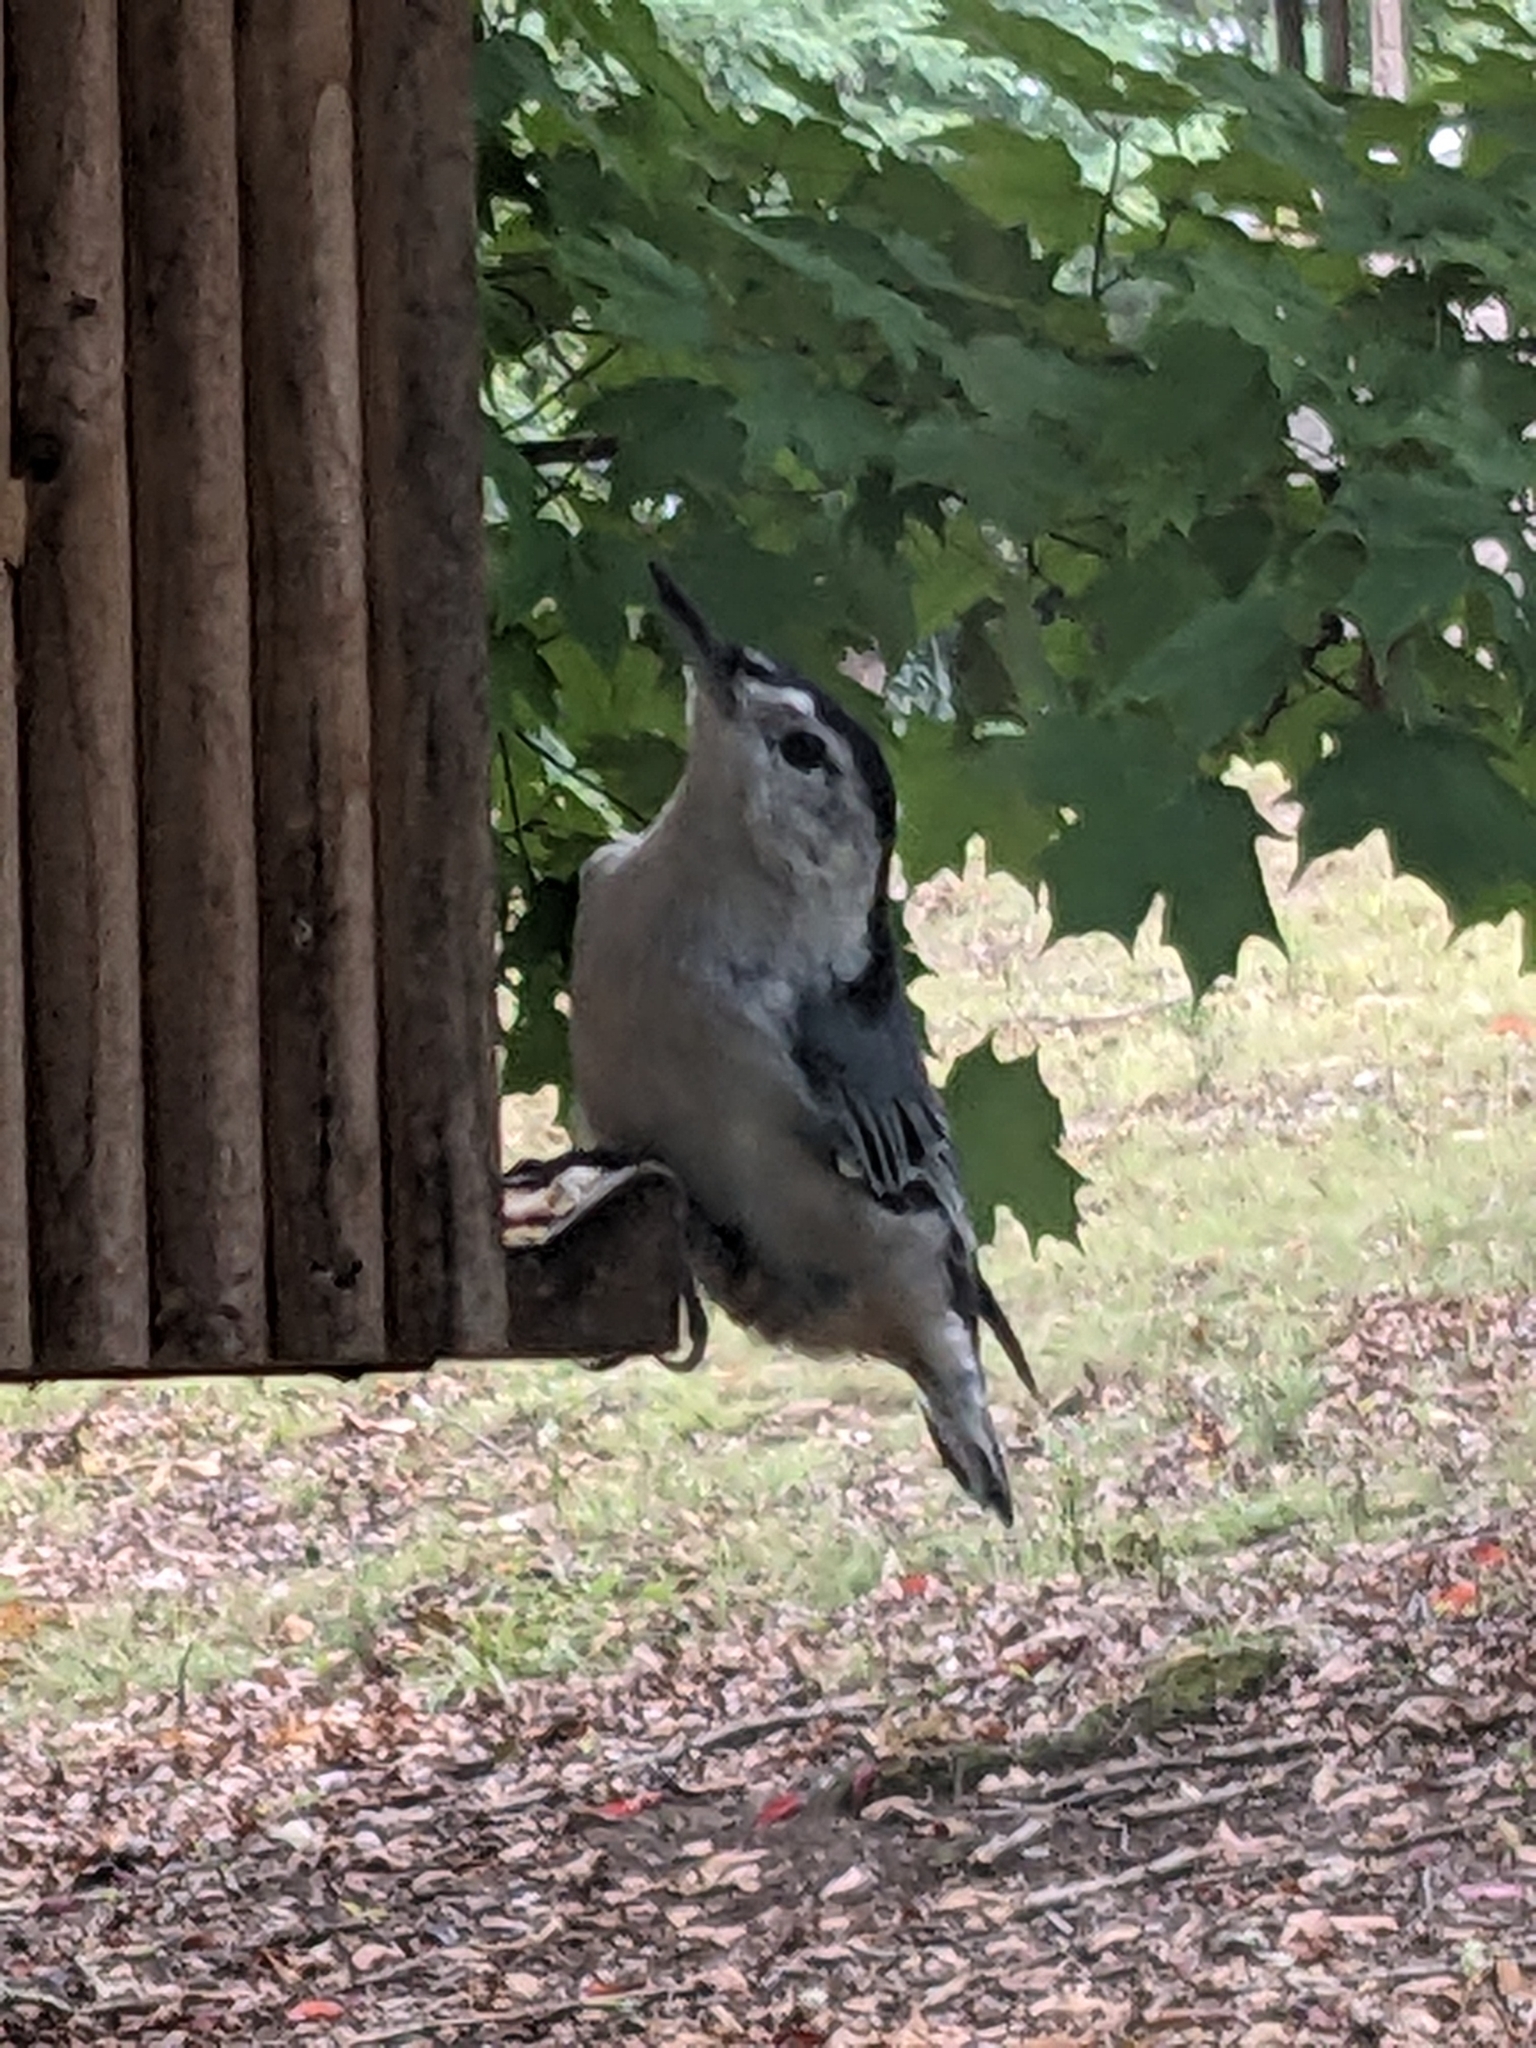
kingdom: Animalia
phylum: Chordata
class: Aves
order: Passeriformes
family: Sittidae
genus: Sitta
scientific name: Sitta carolinensis
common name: White-breasted nuthatch
